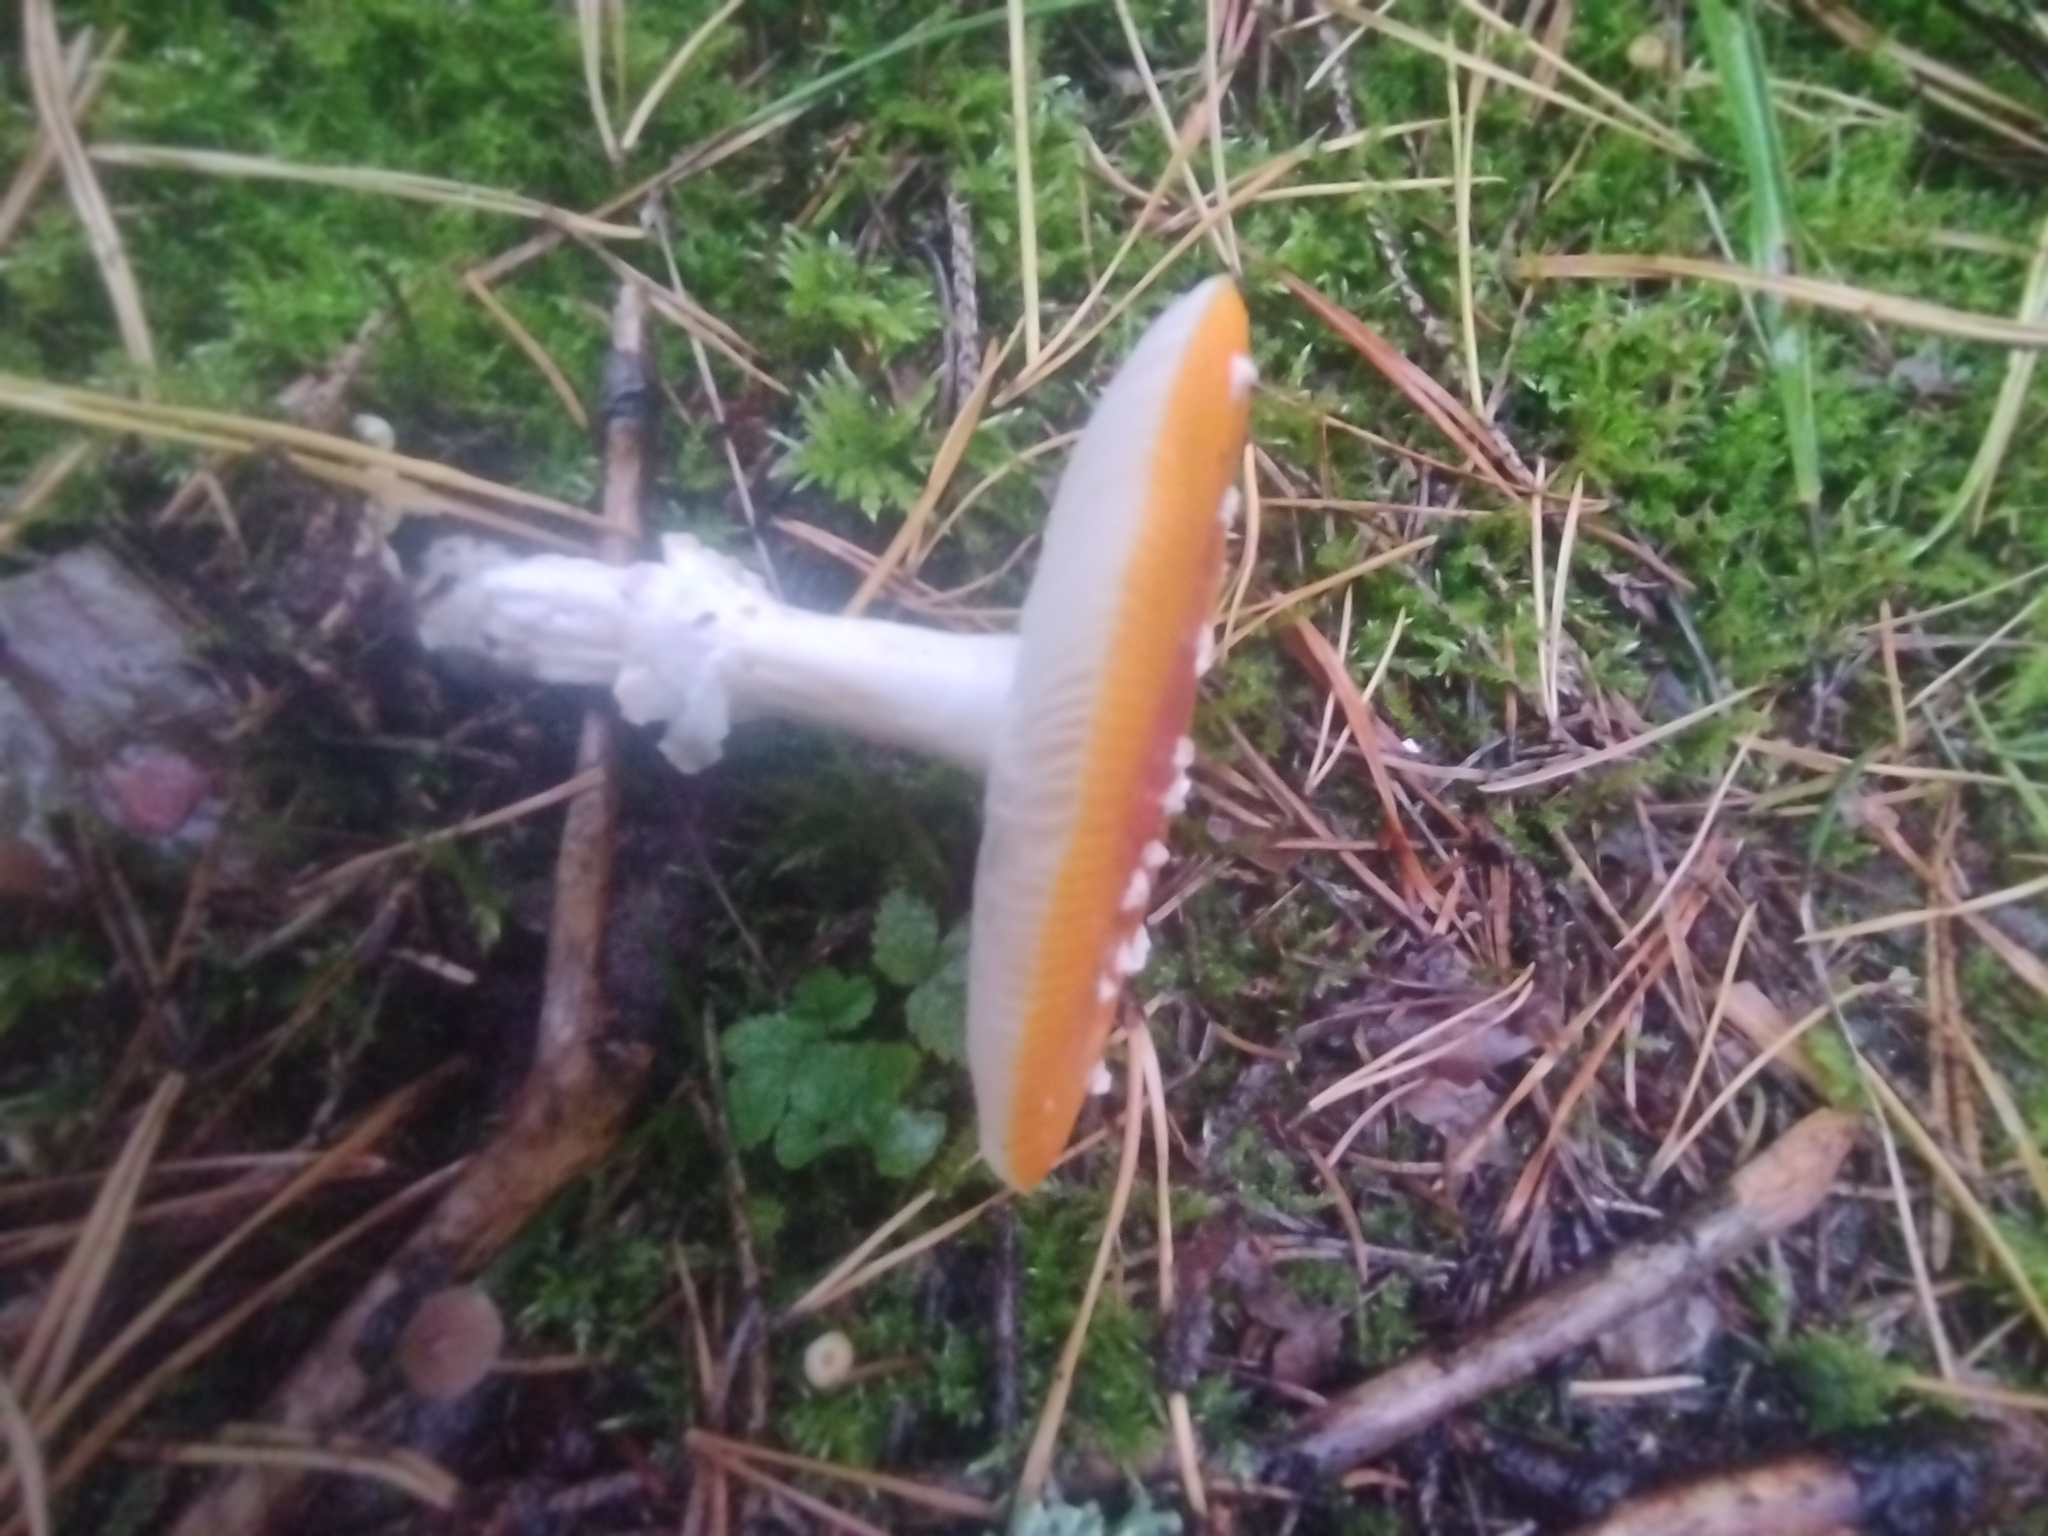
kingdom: Fungi
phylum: Basidiomycota
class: Agaricomycetes
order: Agaricales
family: Amanitaceae
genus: Amanita
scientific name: Amanita muscaria
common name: Fly agaric
